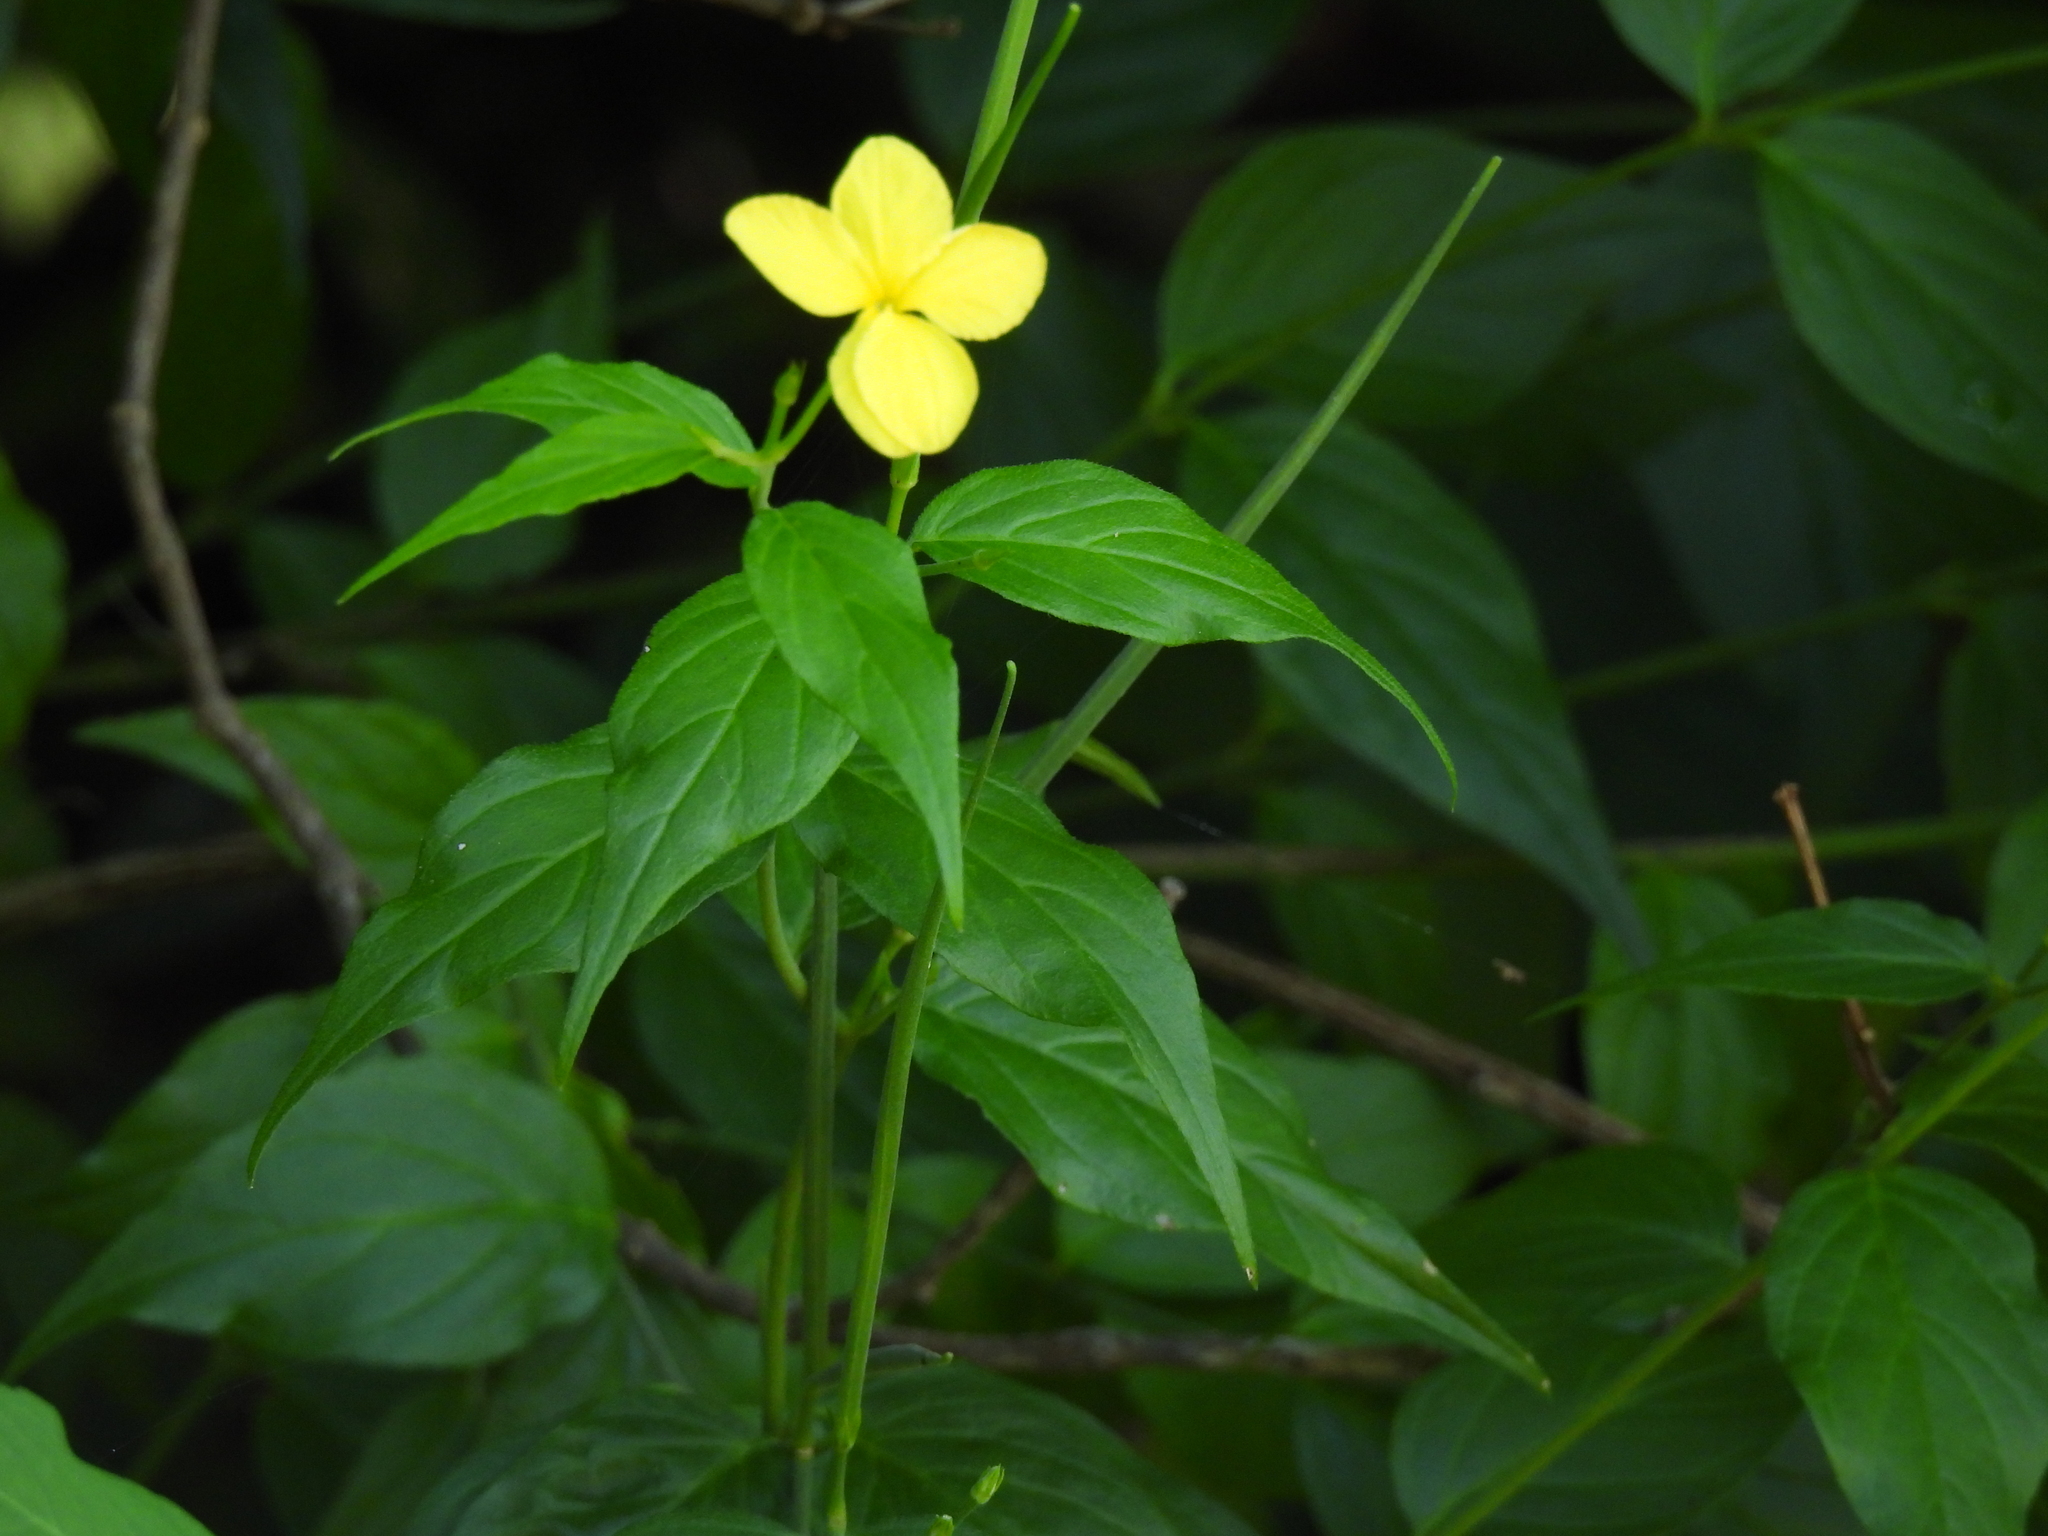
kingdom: Plantae
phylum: Tracheophyta
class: Magnoliopsida
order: Gentianales
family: Apocynaceae
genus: Haplophyton
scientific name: Haplophyton cimicidum
